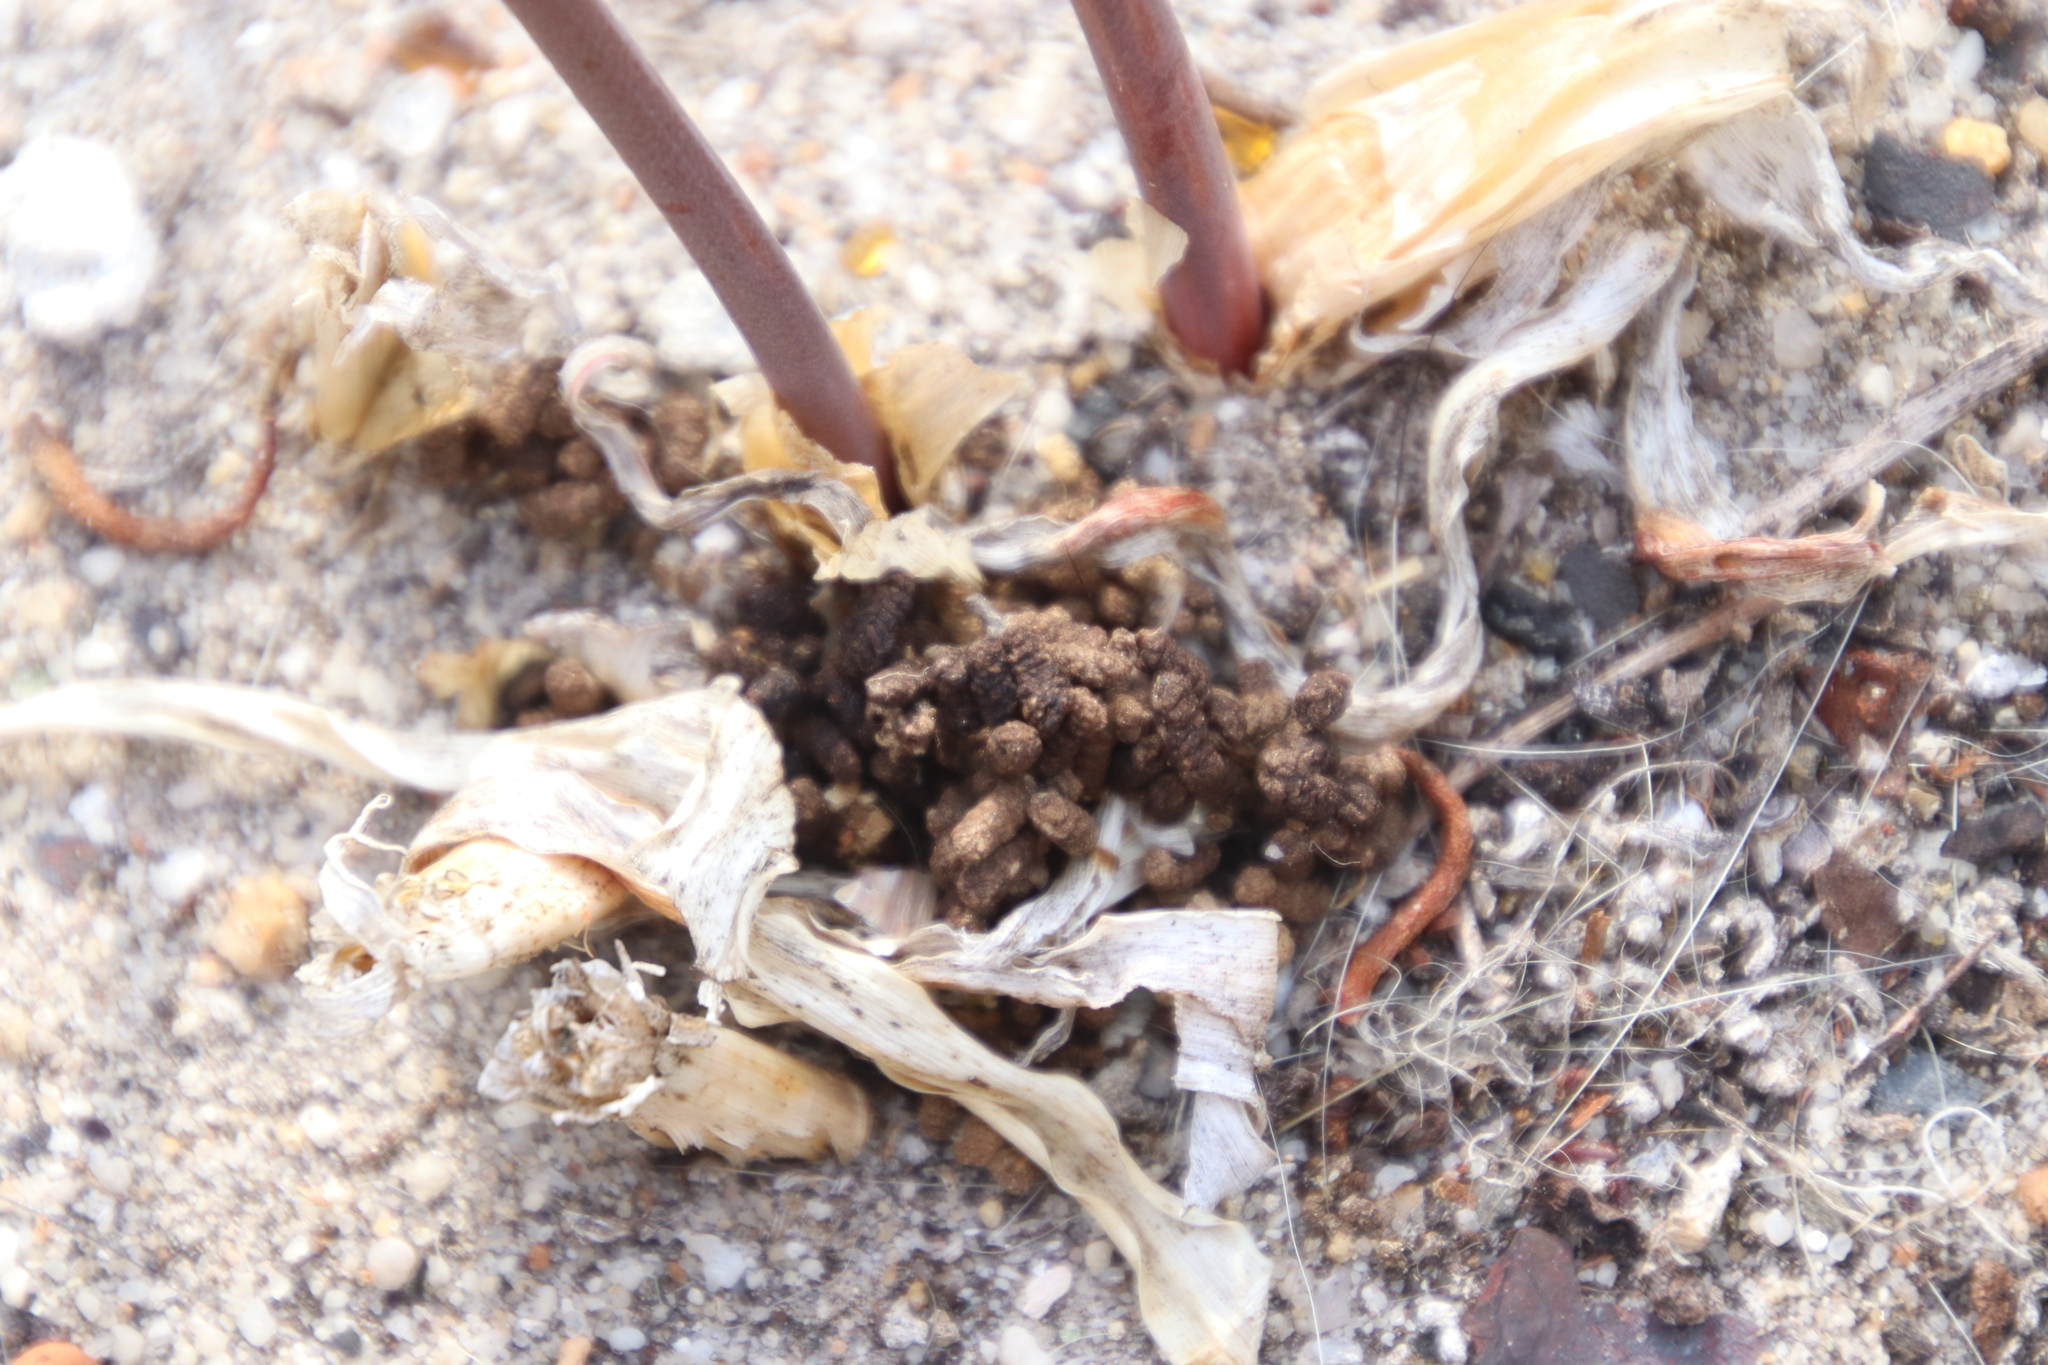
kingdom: Animalia
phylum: Arthropoda
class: Insecta
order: Lepidoptera
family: Noctuidae
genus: Brithys
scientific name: Brithys crini
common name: Kew arches
